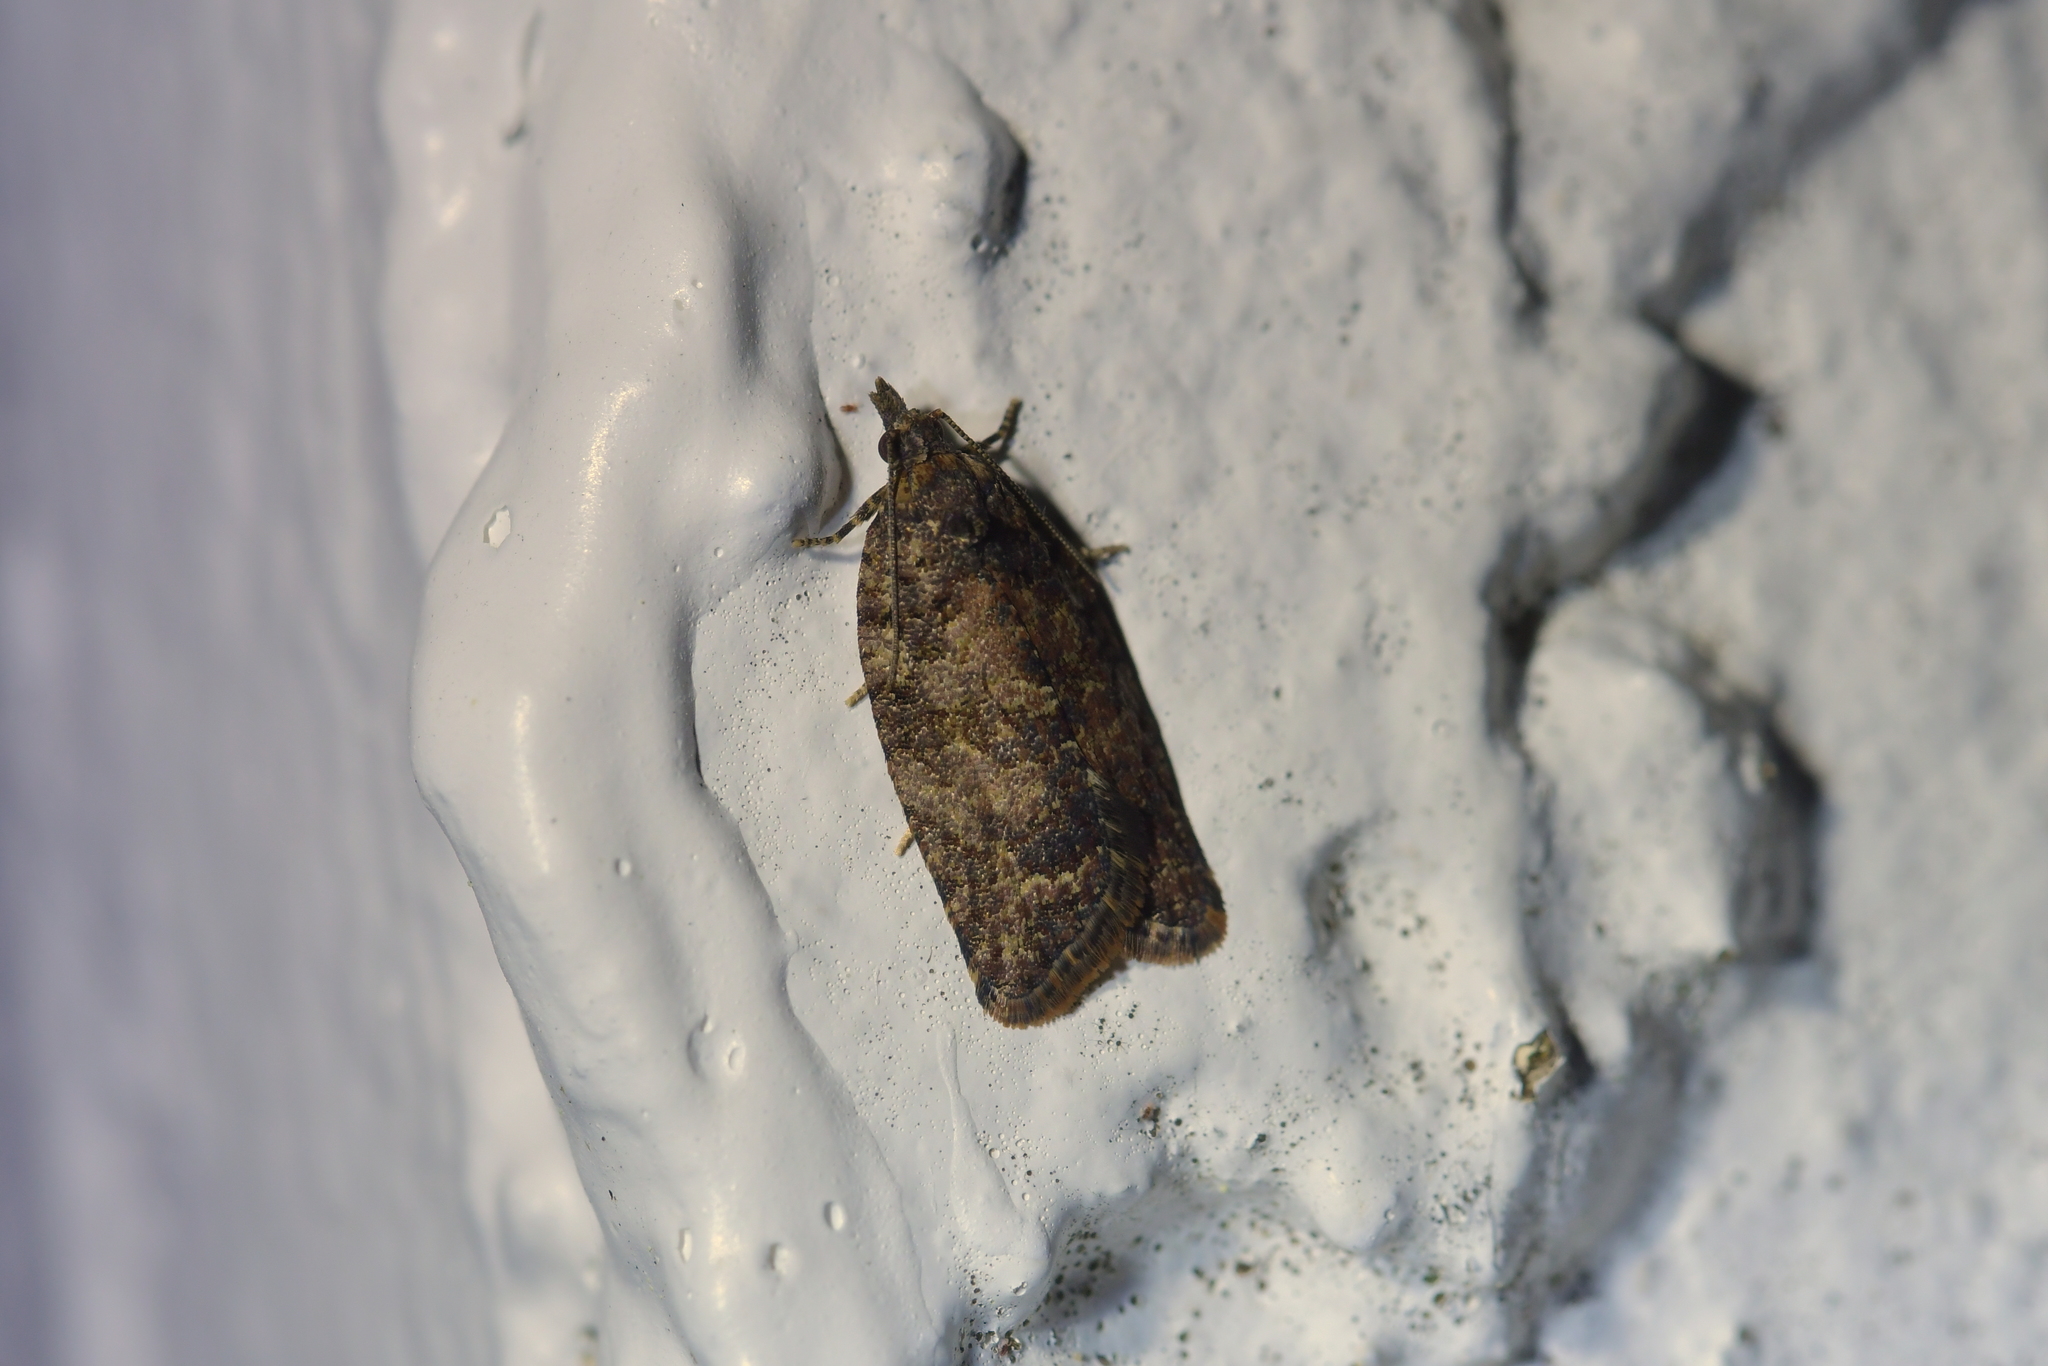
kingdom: Animalia
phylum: Arthropoda
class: Insecta
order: Lepidoptera
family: Tortricidae
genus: Capua
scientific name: Capua intractana
